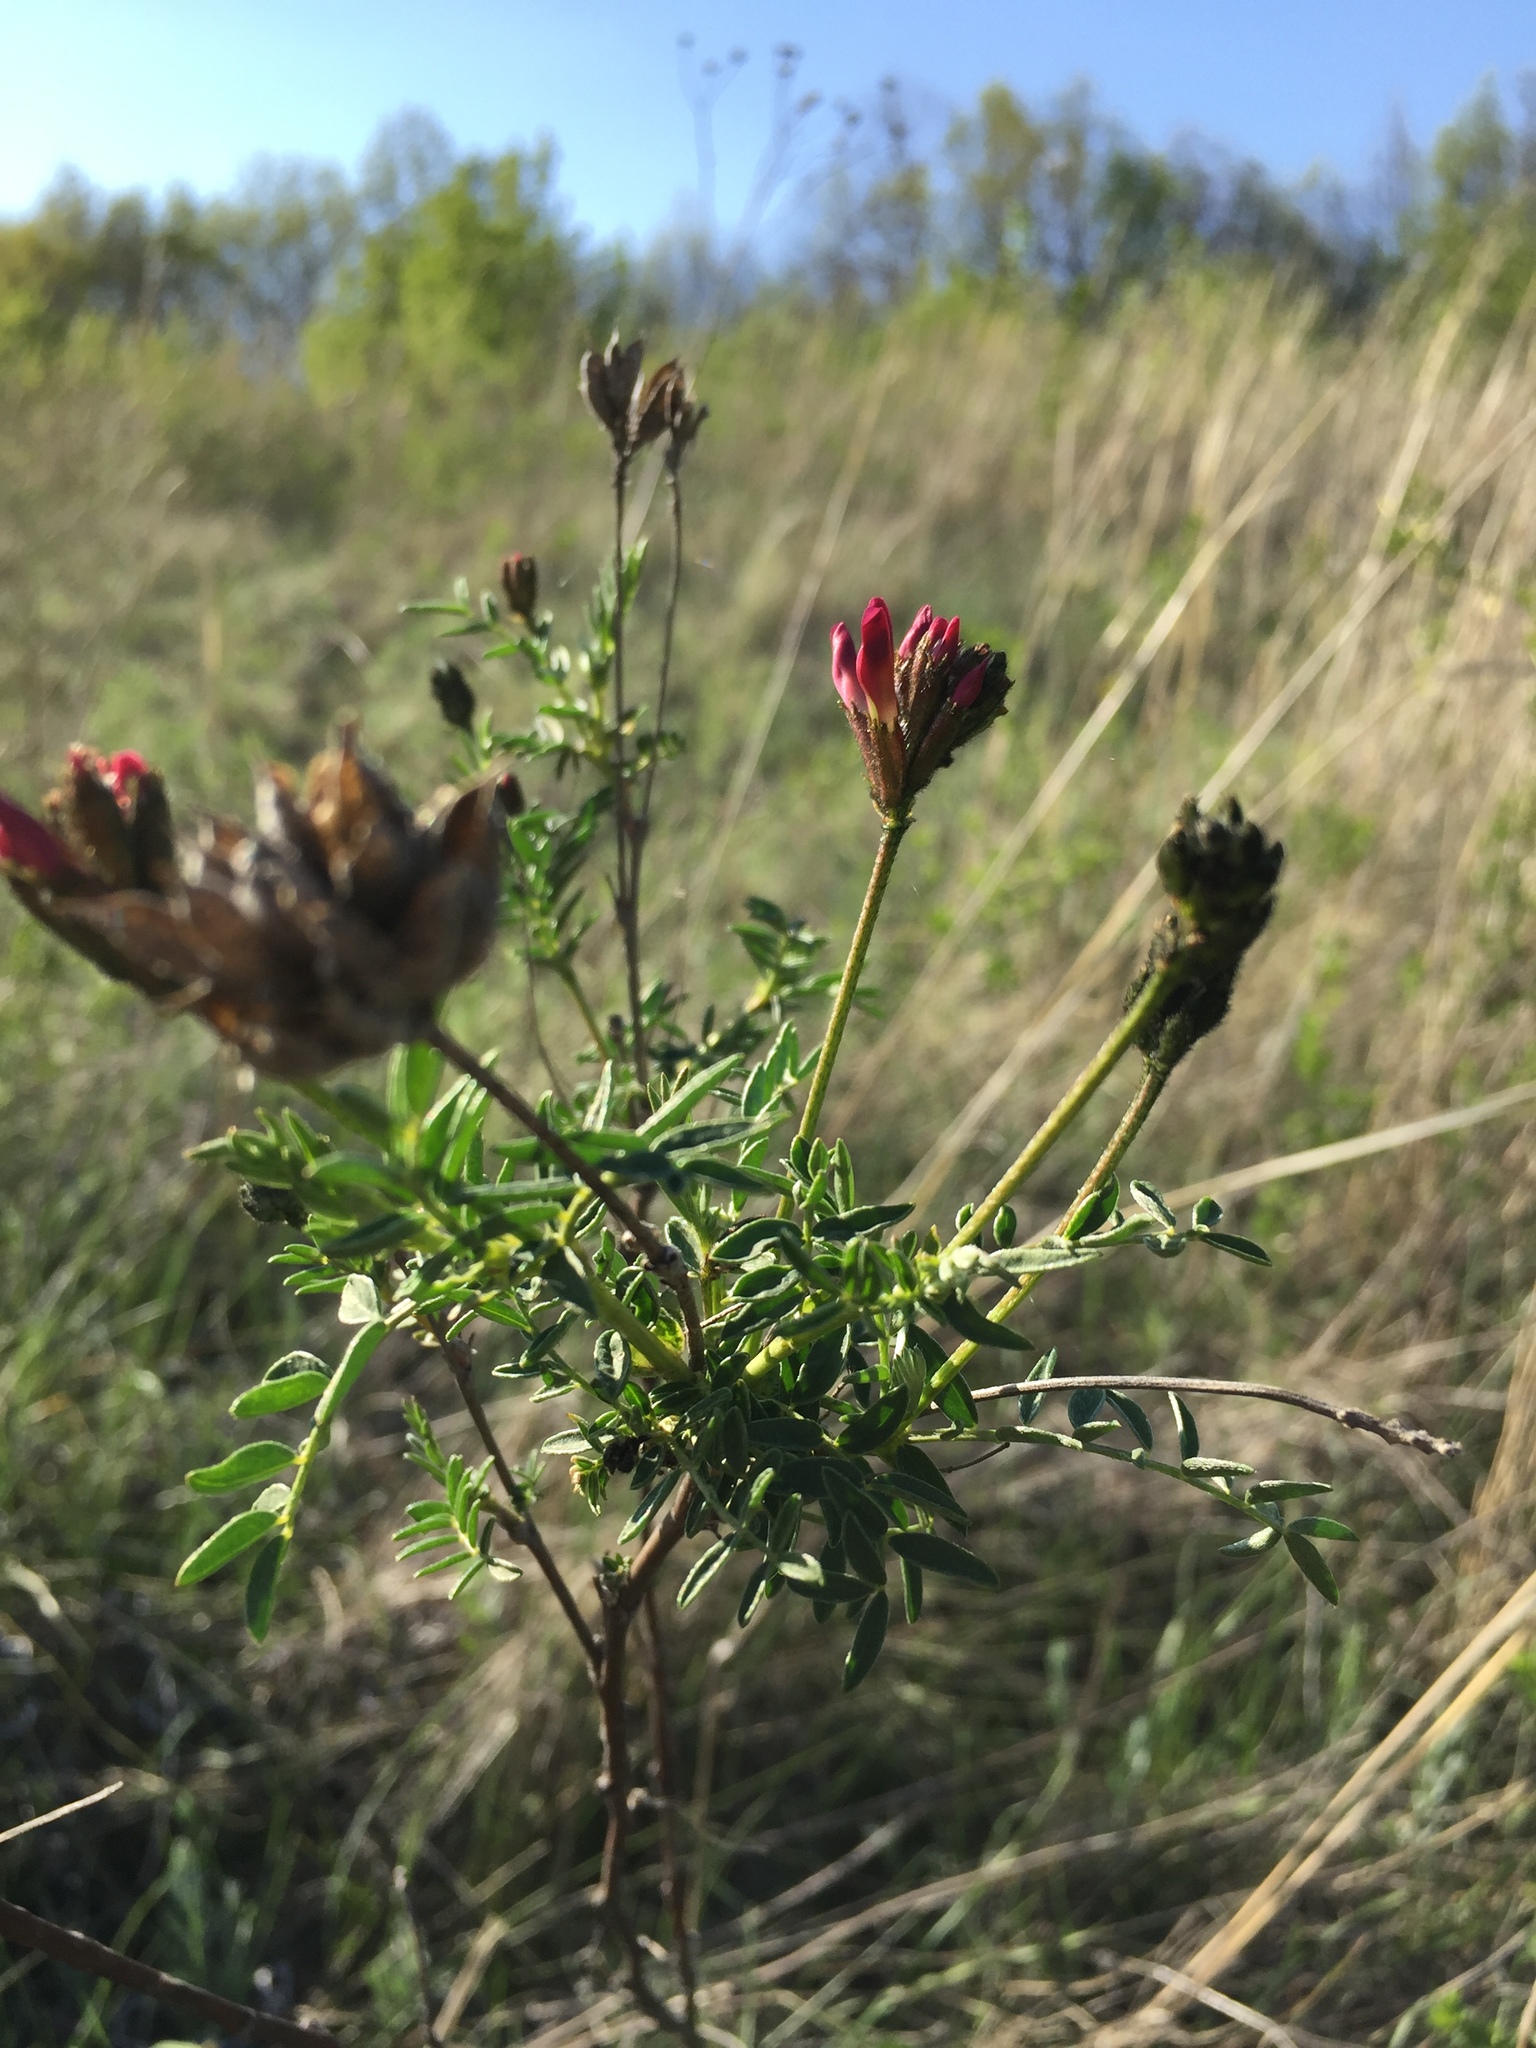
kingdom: Plantae
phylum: Tracheophyta
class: Magnoliopsida
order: Fabales
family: Fabaceae
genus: Astragalus
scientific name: Astragalus cornutus
